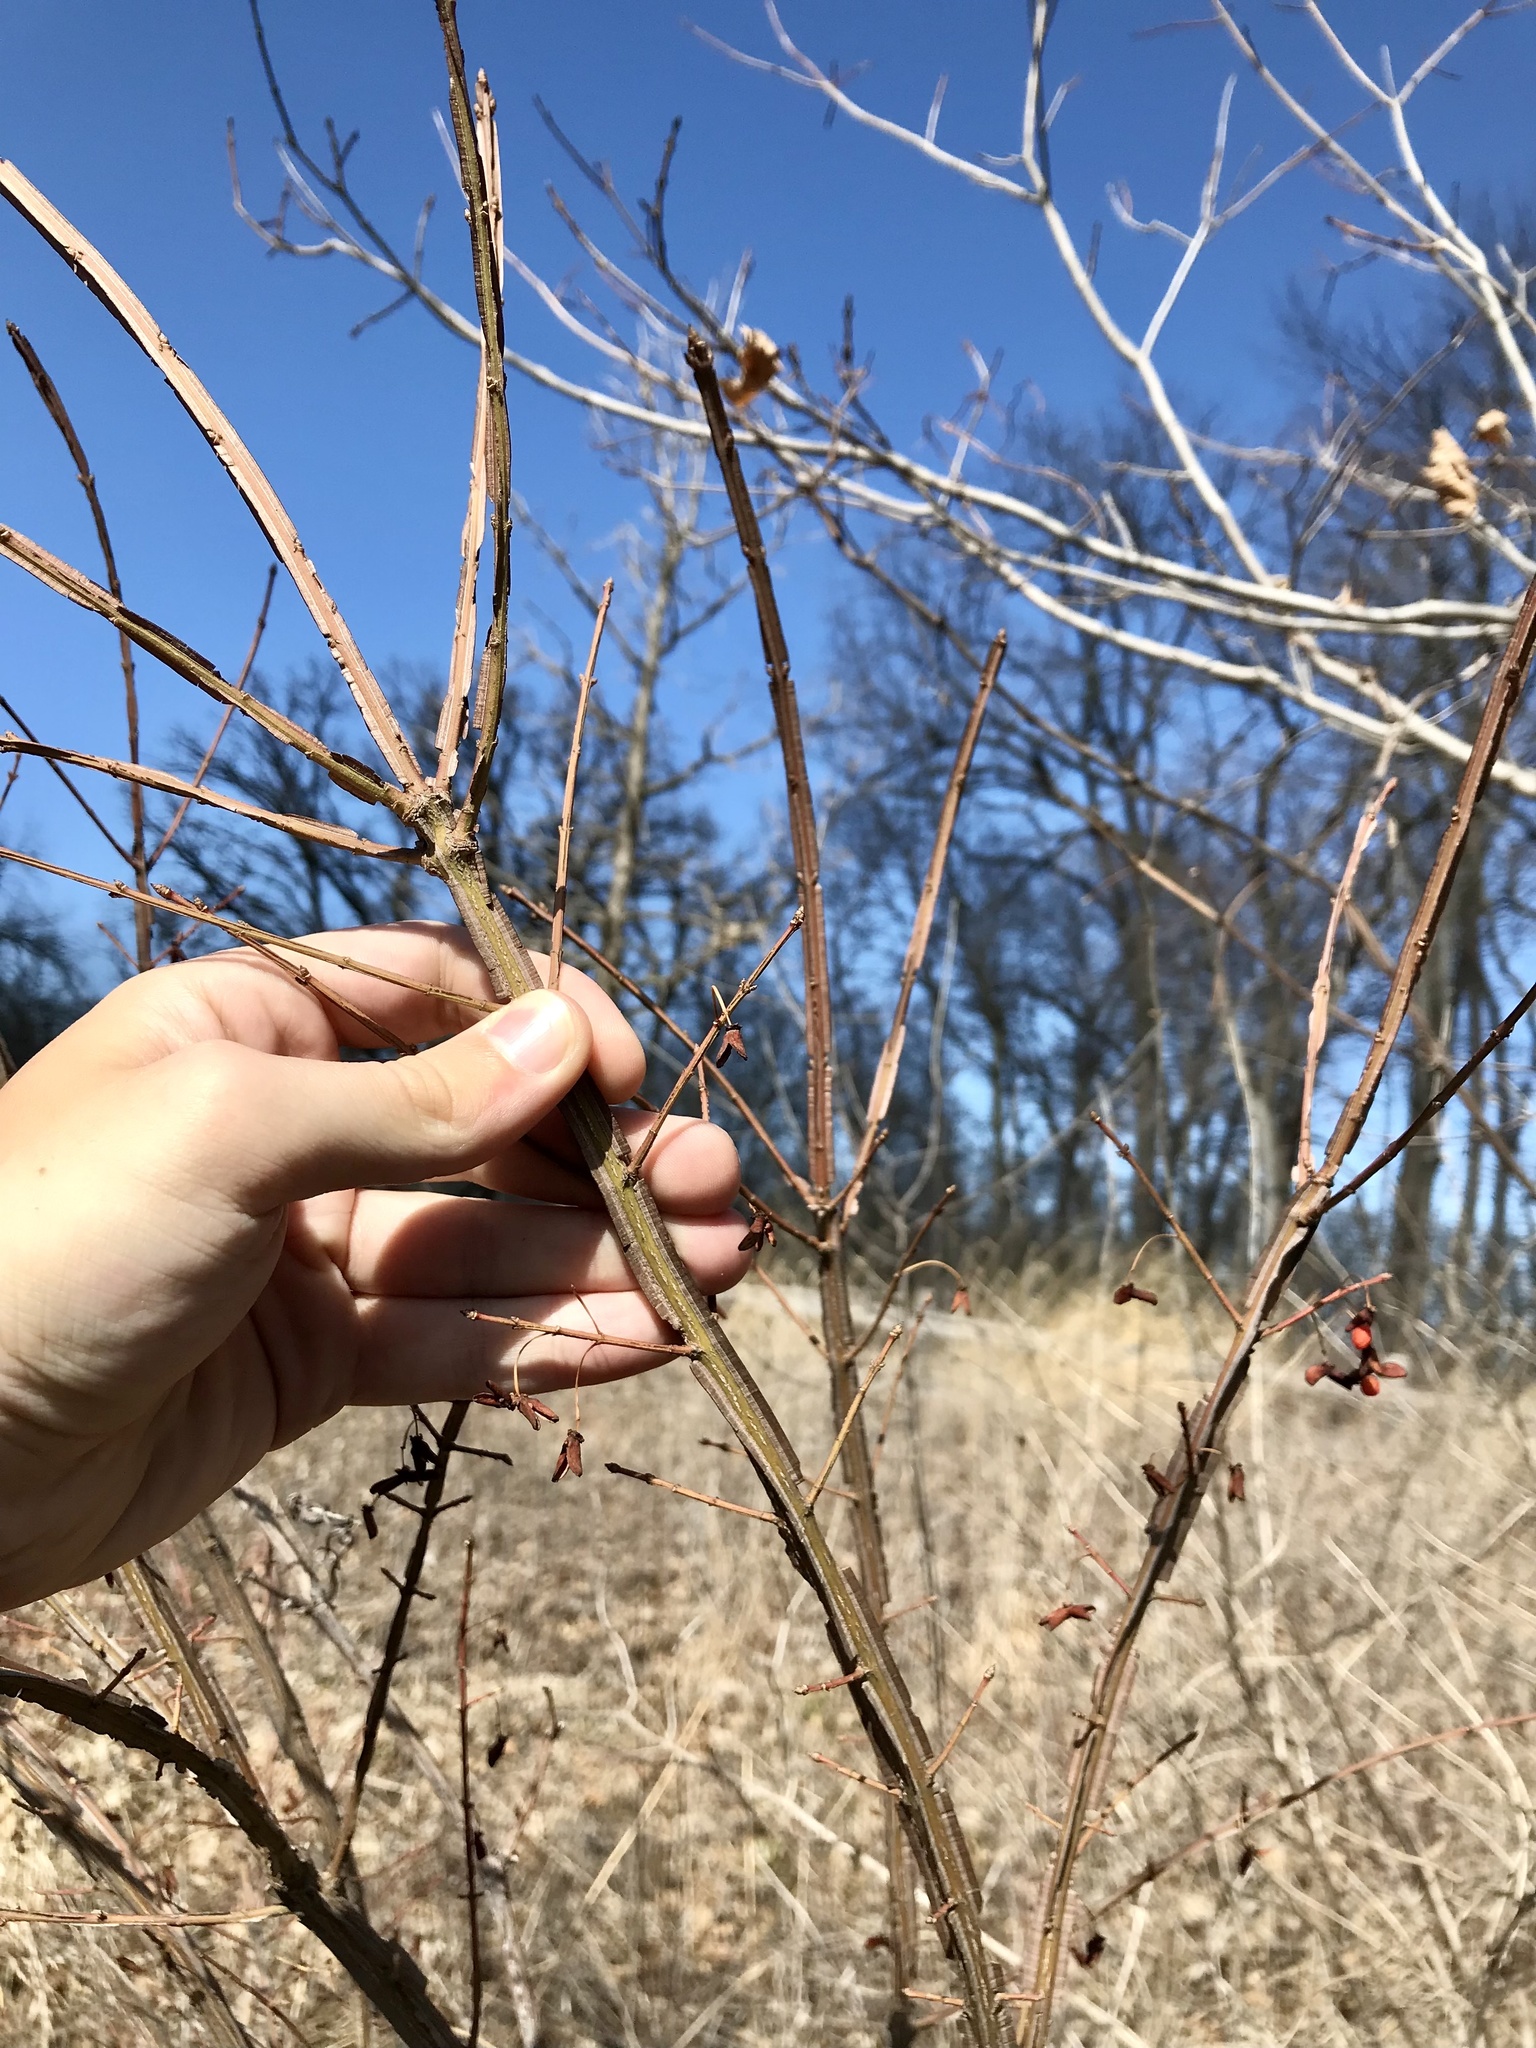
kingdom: Plantae
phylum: Tracheophyta
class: Magnoliopsida
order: Celastrales
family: Celastraceae
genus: Euonymus
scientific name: Euonymus alatus
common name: Winged euonymus
